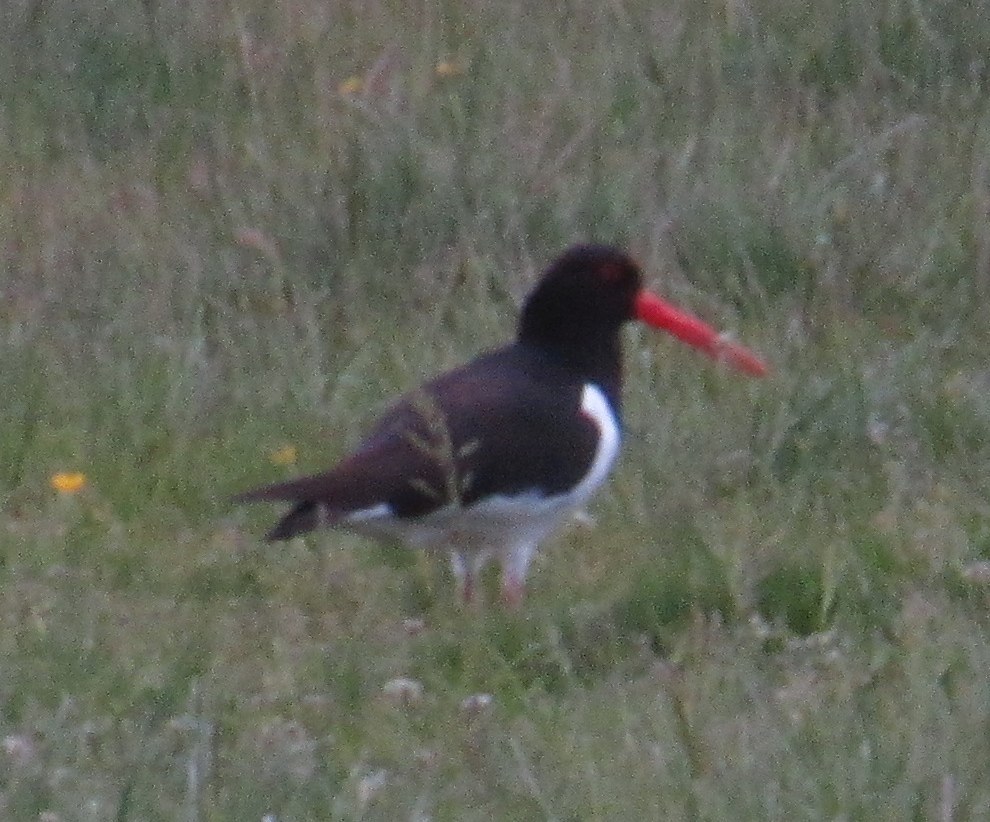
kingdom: Animalia
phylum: Chordata
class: Aves
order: Charadriiformes
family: Haematopodidae
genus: Haematopus
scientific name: Haematopus ostralegus
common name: Eurasian oystercatcher
